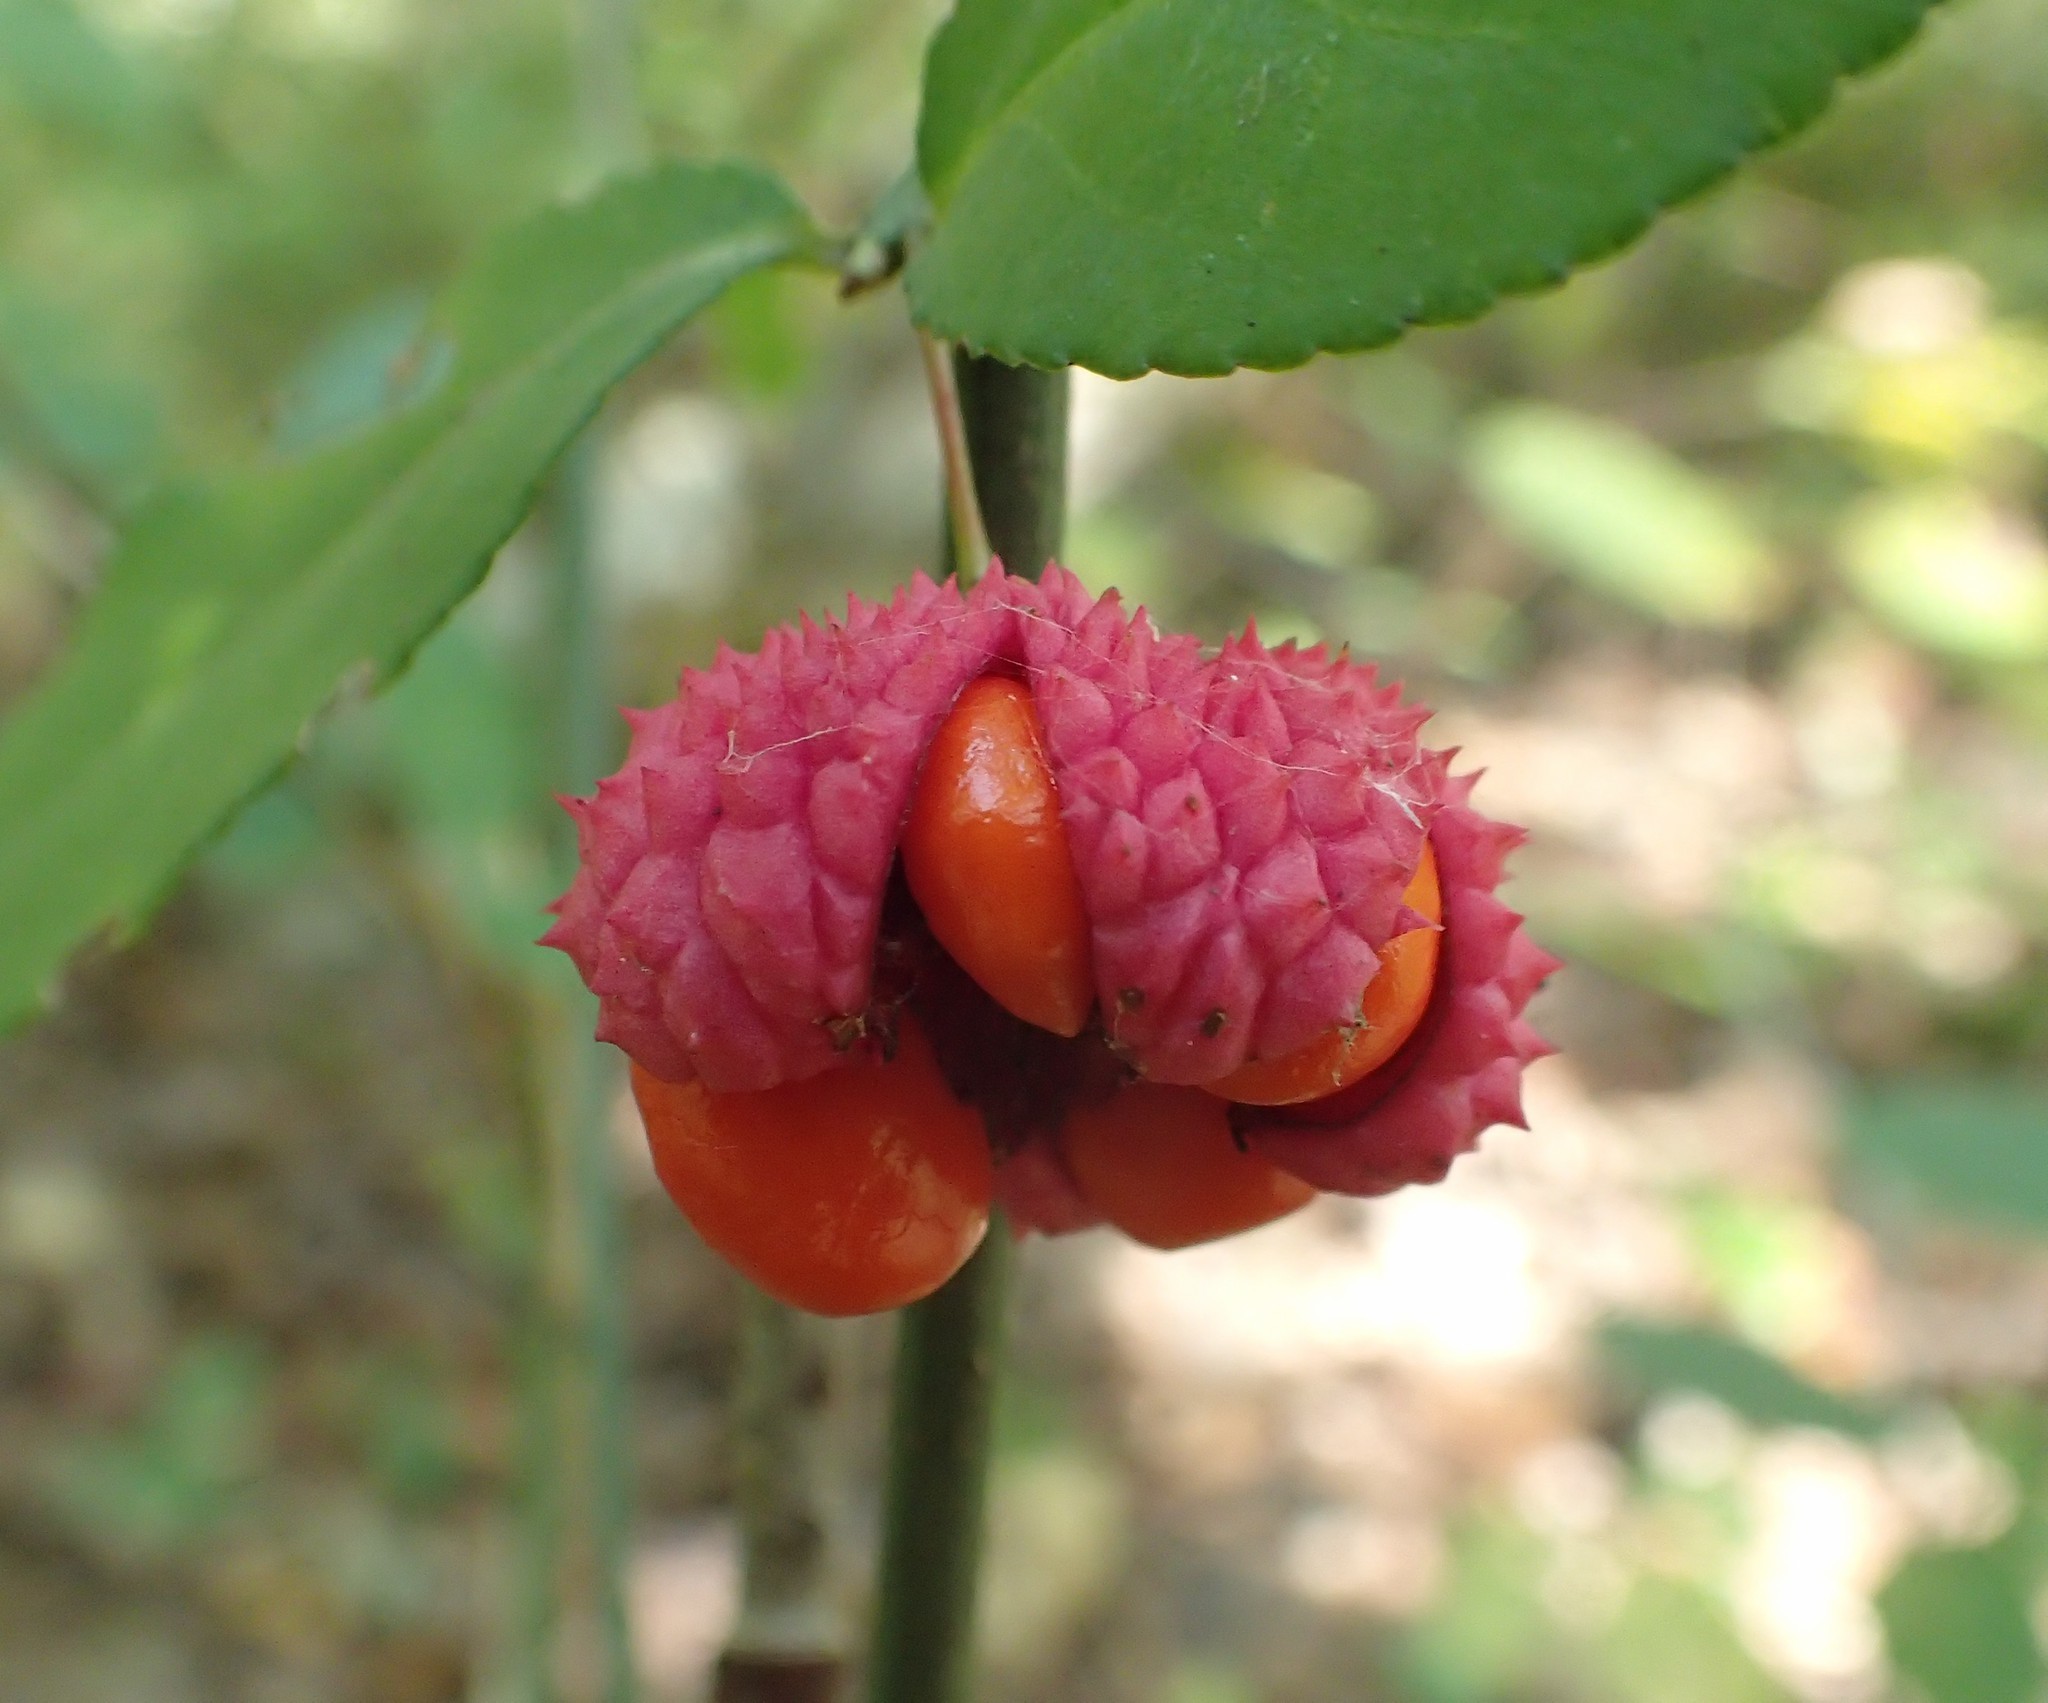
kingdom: Plantae
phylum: Tracheophyta
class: Magnoliopsida
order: Celastrales
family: Celastraceae
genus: Euonymus
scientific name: Euonymus americanus
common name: Bursting-heart
